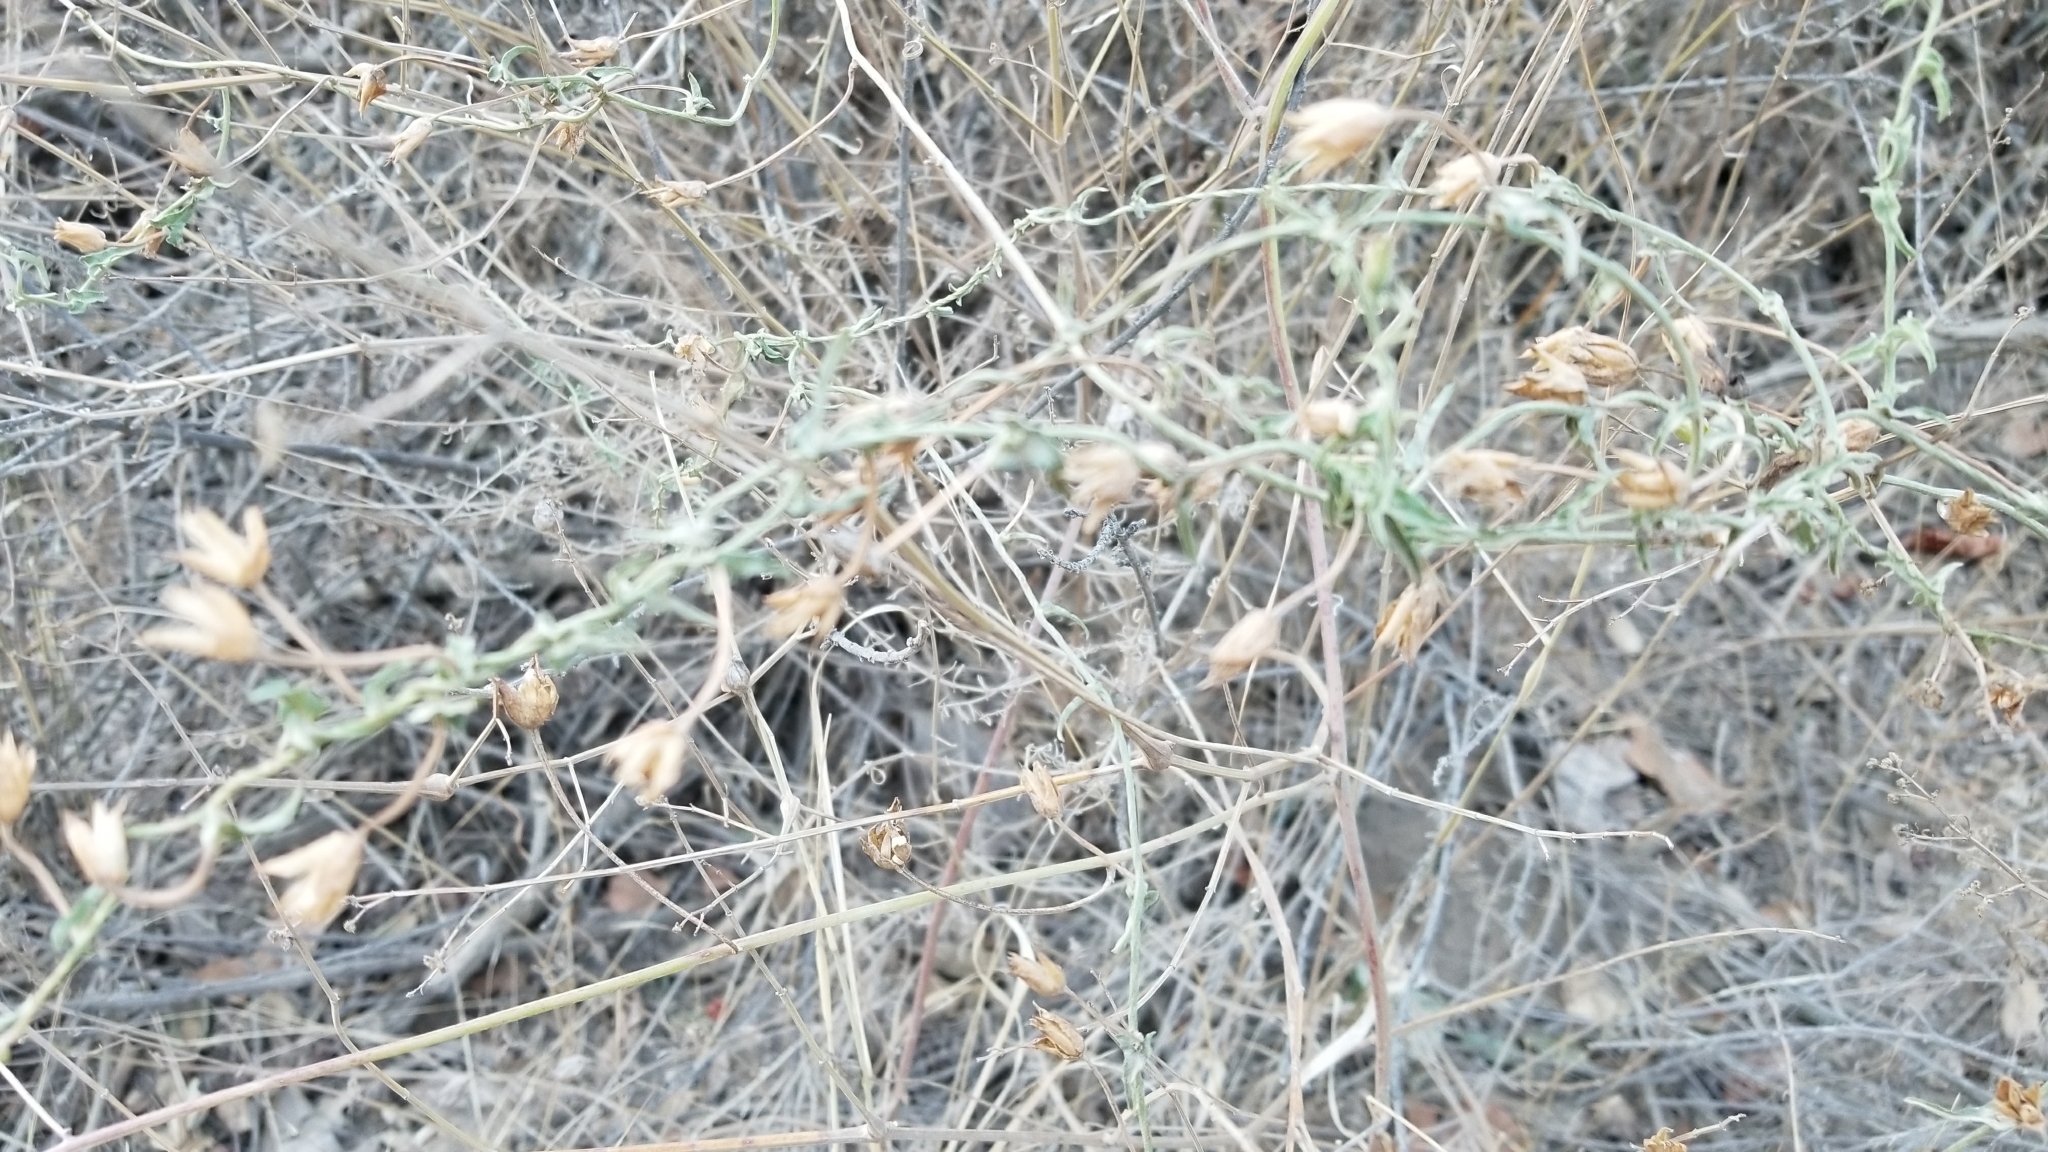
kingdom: Plantae
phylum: Tracheophyta
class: Magnoliopsida
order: Solanales
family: Convolvulaceae
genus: Calystegia
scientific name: Calystegia macrostegia
